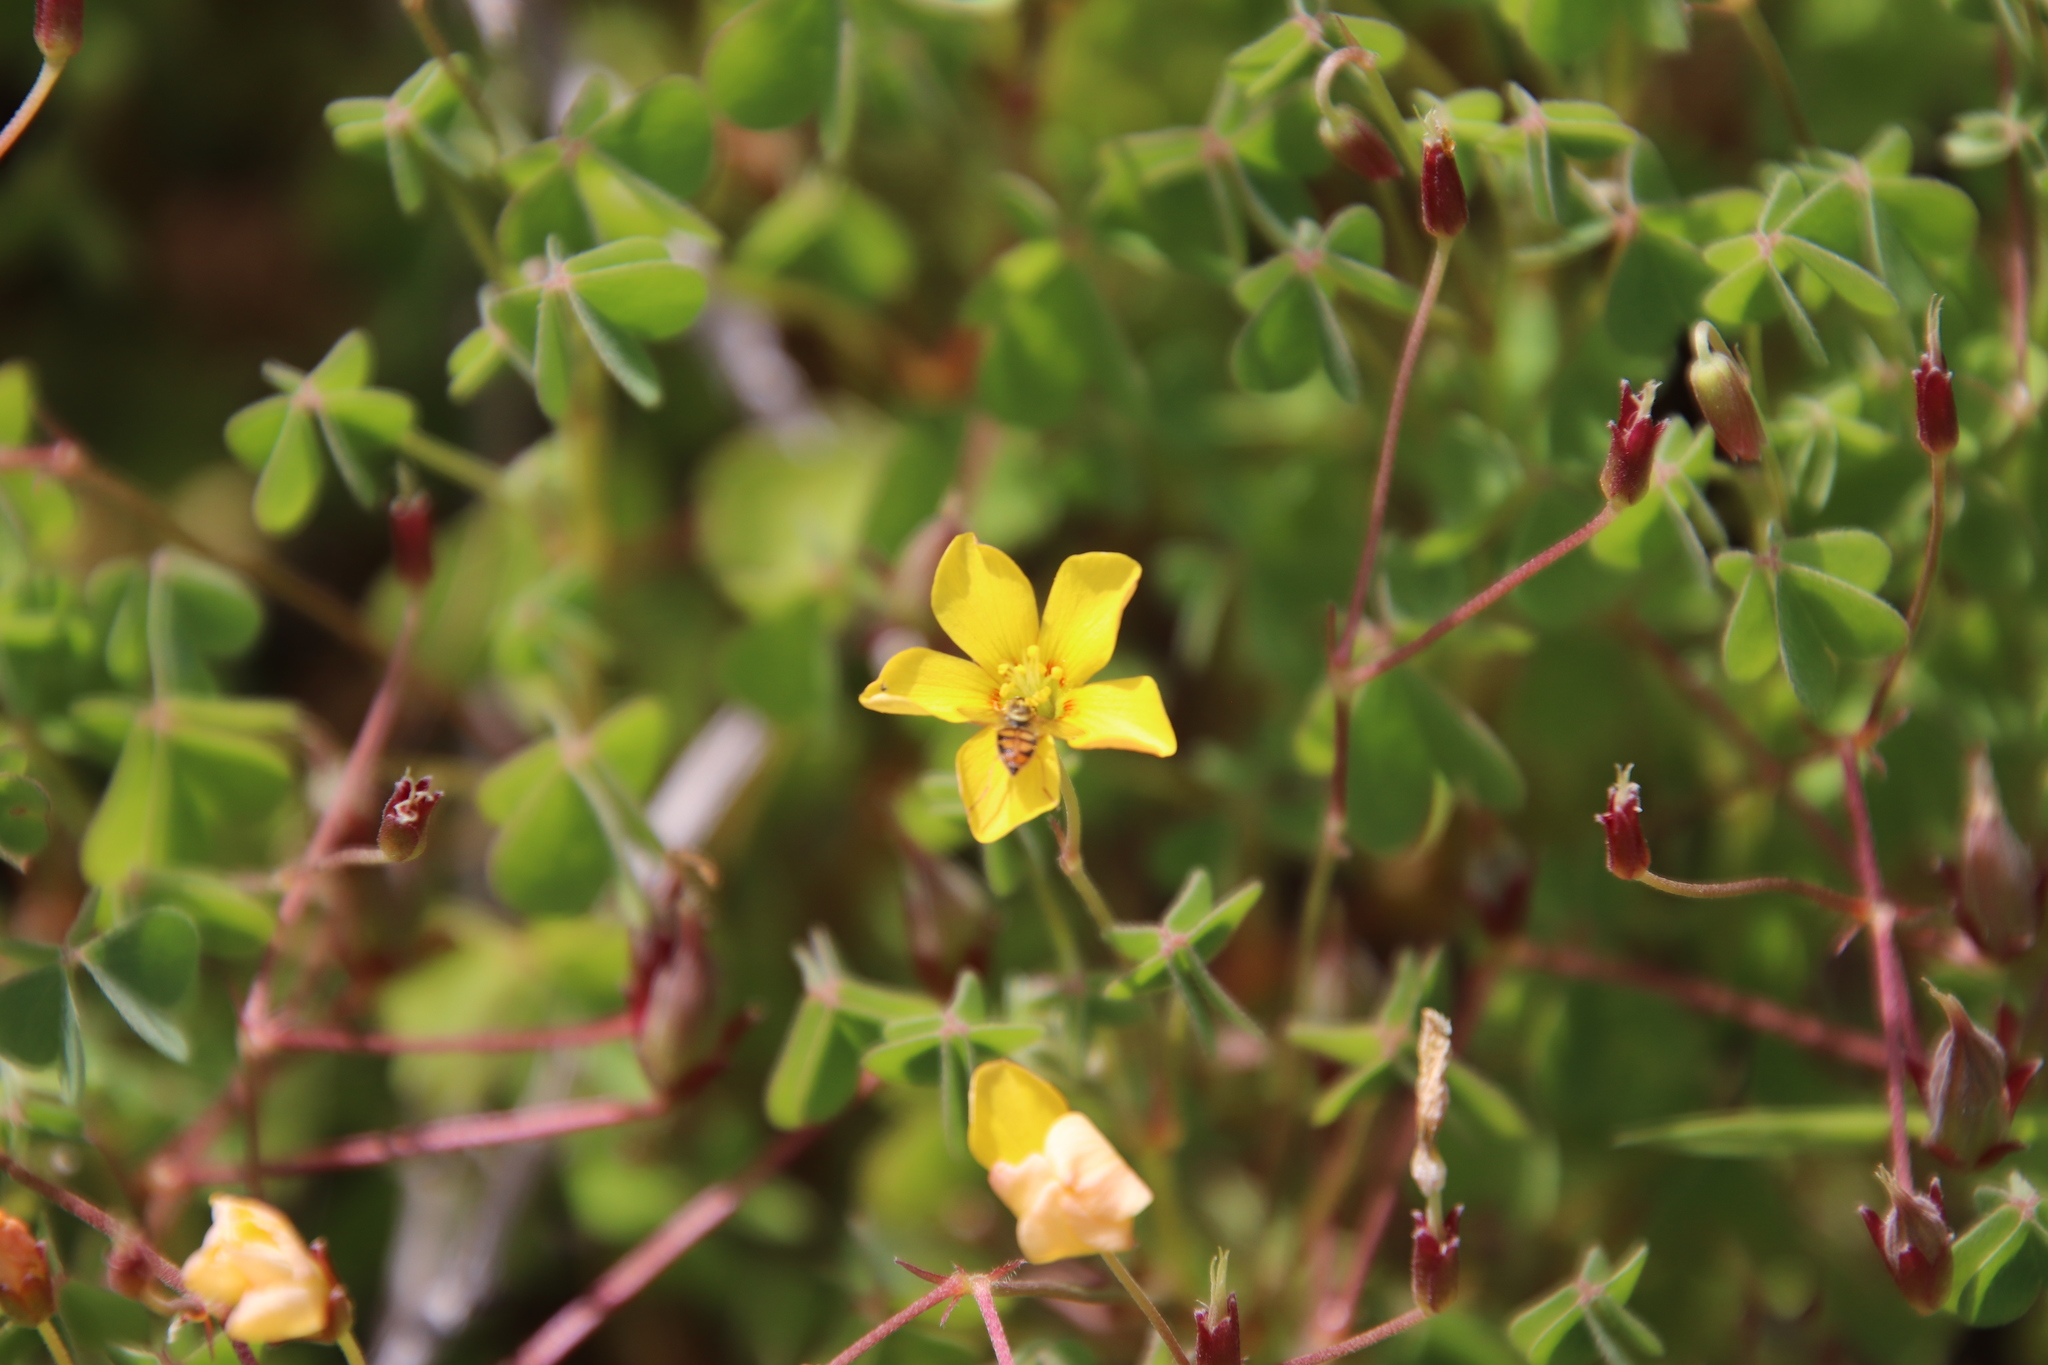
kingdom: Plantae
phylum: Tracheophyta
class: Magnoliopsida
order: Oxalidales
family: Oxalidaceae
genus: Oxalis
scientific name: Oxalis californica
